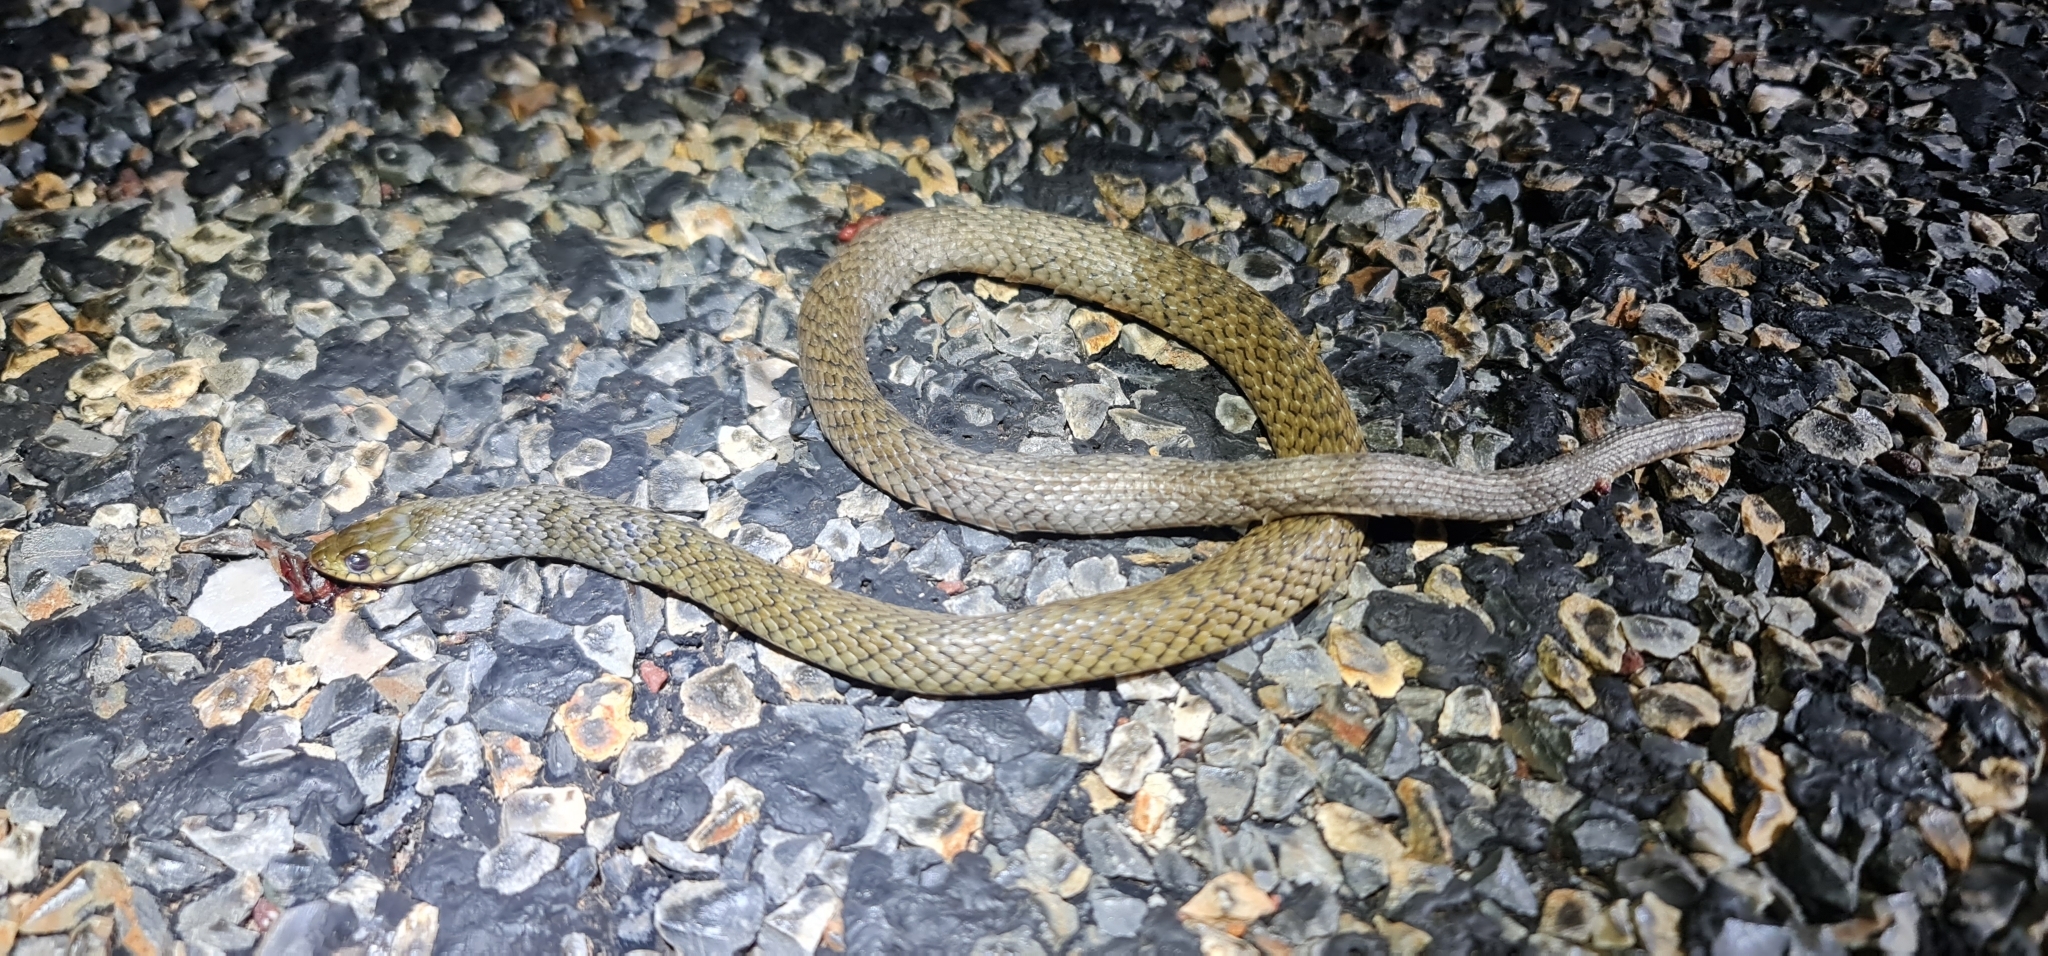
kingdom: Animalia
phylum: Chordata
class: Squamata
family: Colubridae
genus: Tropidonophis
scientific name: Tropidonophis mairii
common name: Common keelback
